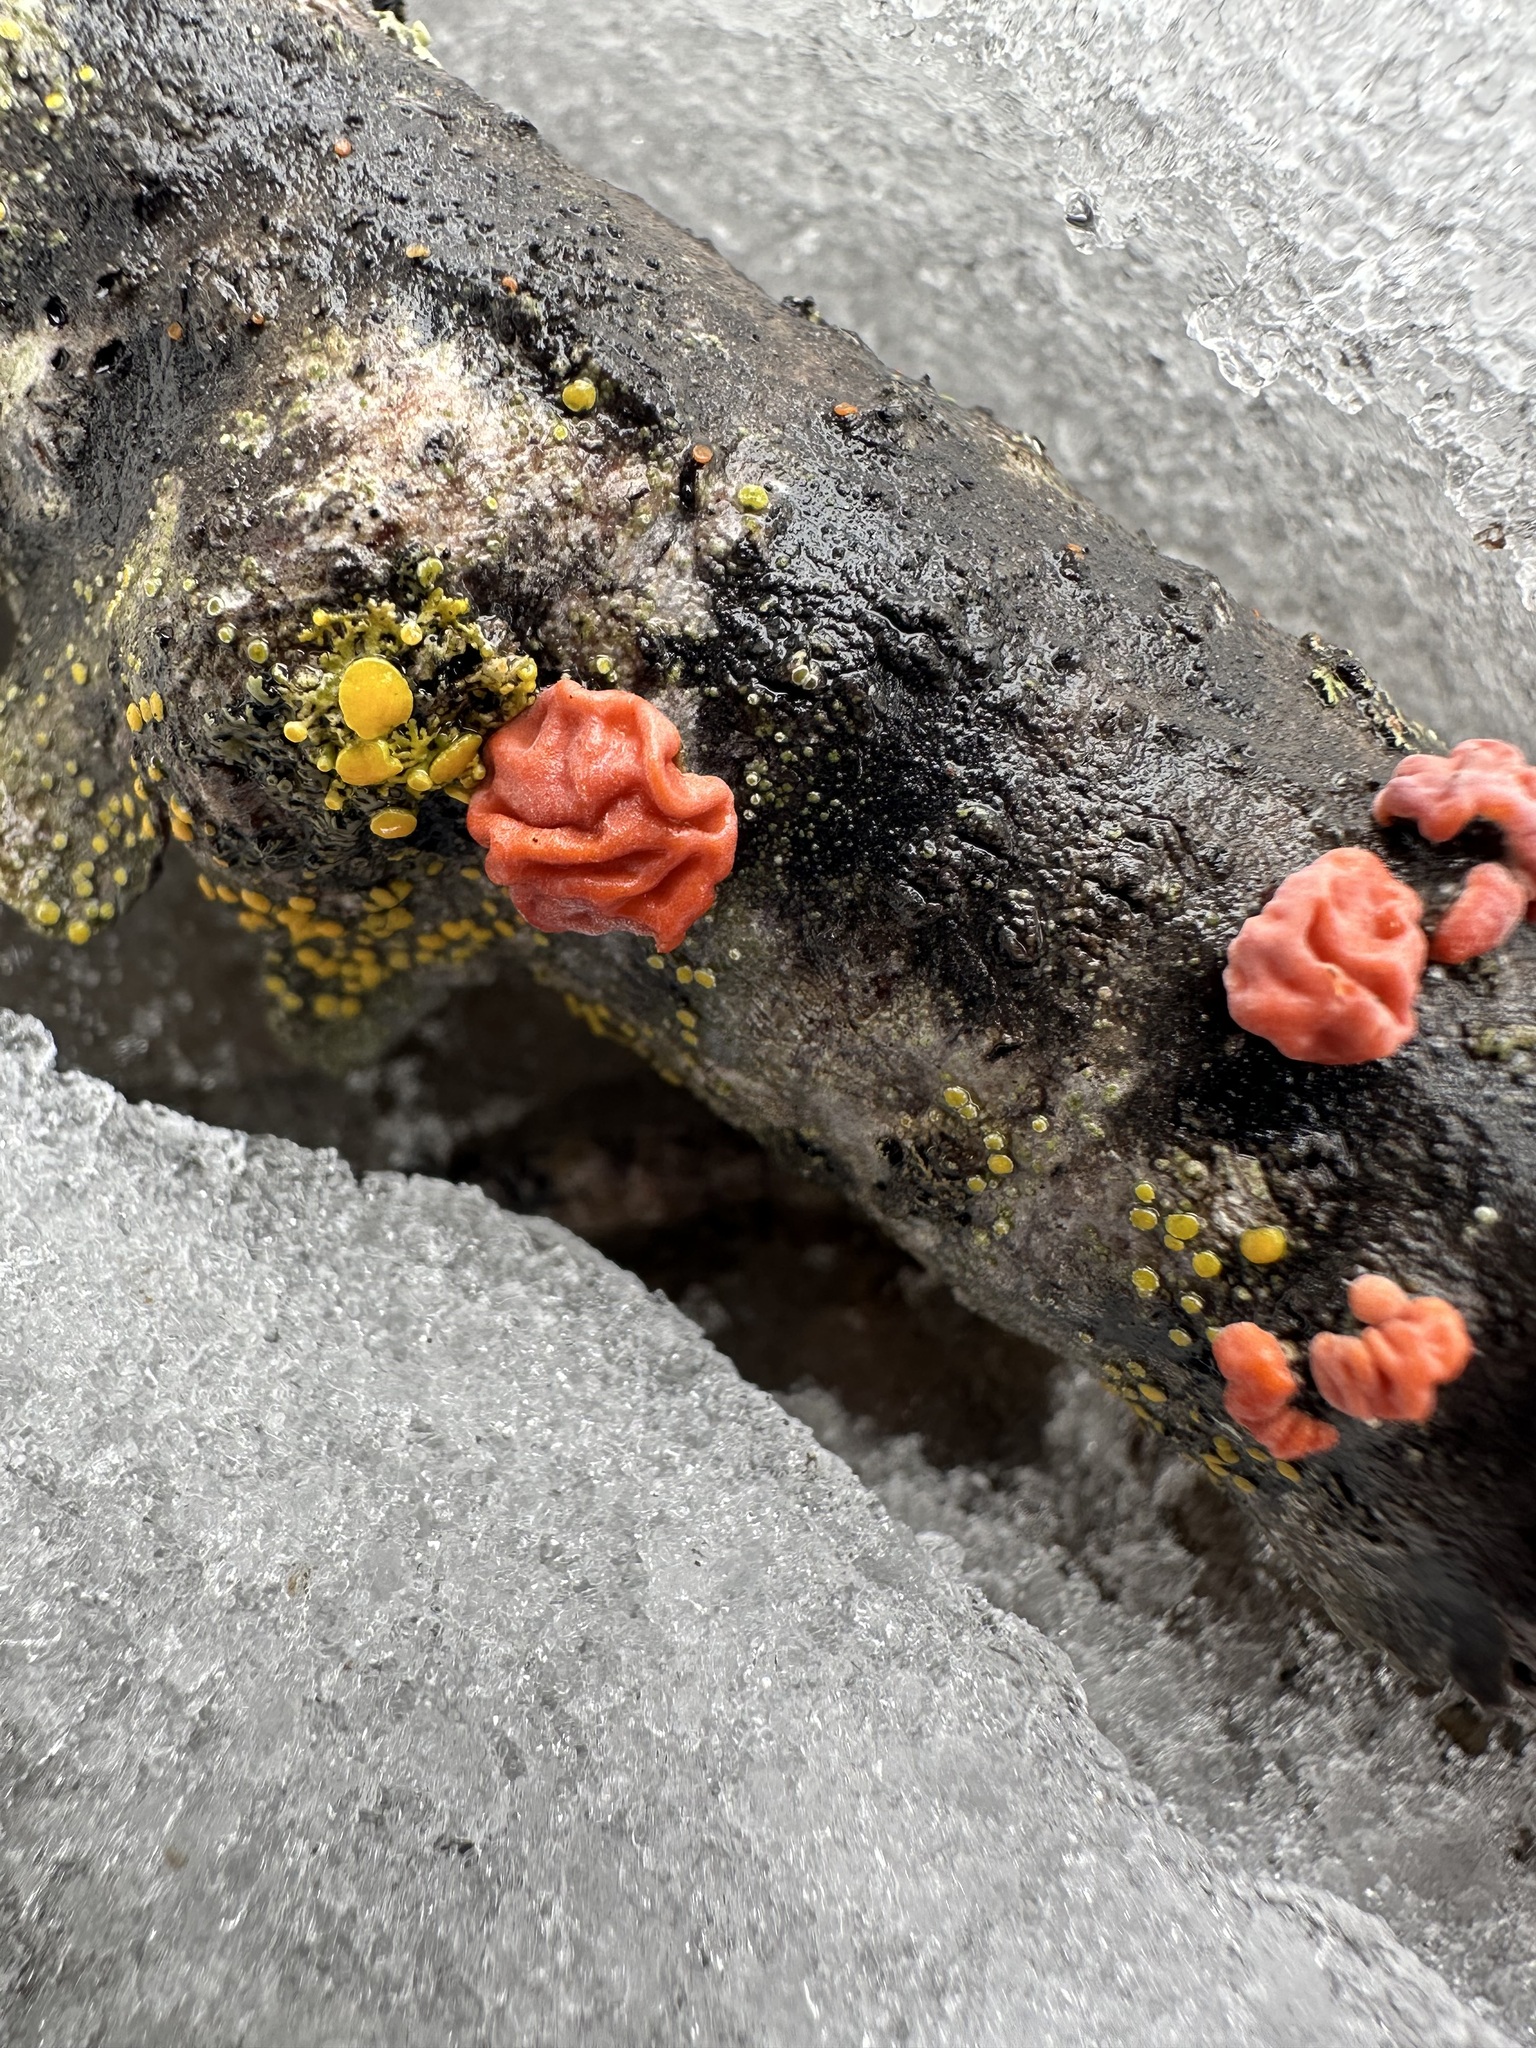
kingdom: Fungi
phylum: Basidiomycota
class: Agaricomycetes
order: Russulales
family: Peniophoraceae
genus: Peniophora
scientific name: Peniophora rufa
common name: Red tree brain fungus
